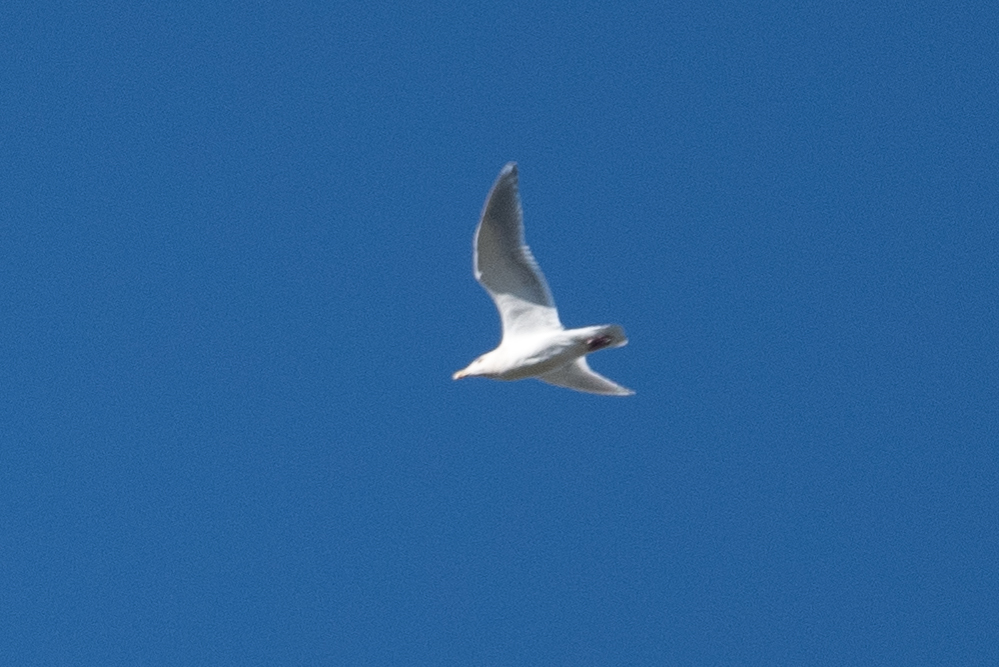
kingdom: Animalia
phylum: Chordata
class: Aves
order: Charadriiformes
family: Laridae
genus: Larus
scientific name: Larus glaucescens
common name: Glaucous-winged gull
